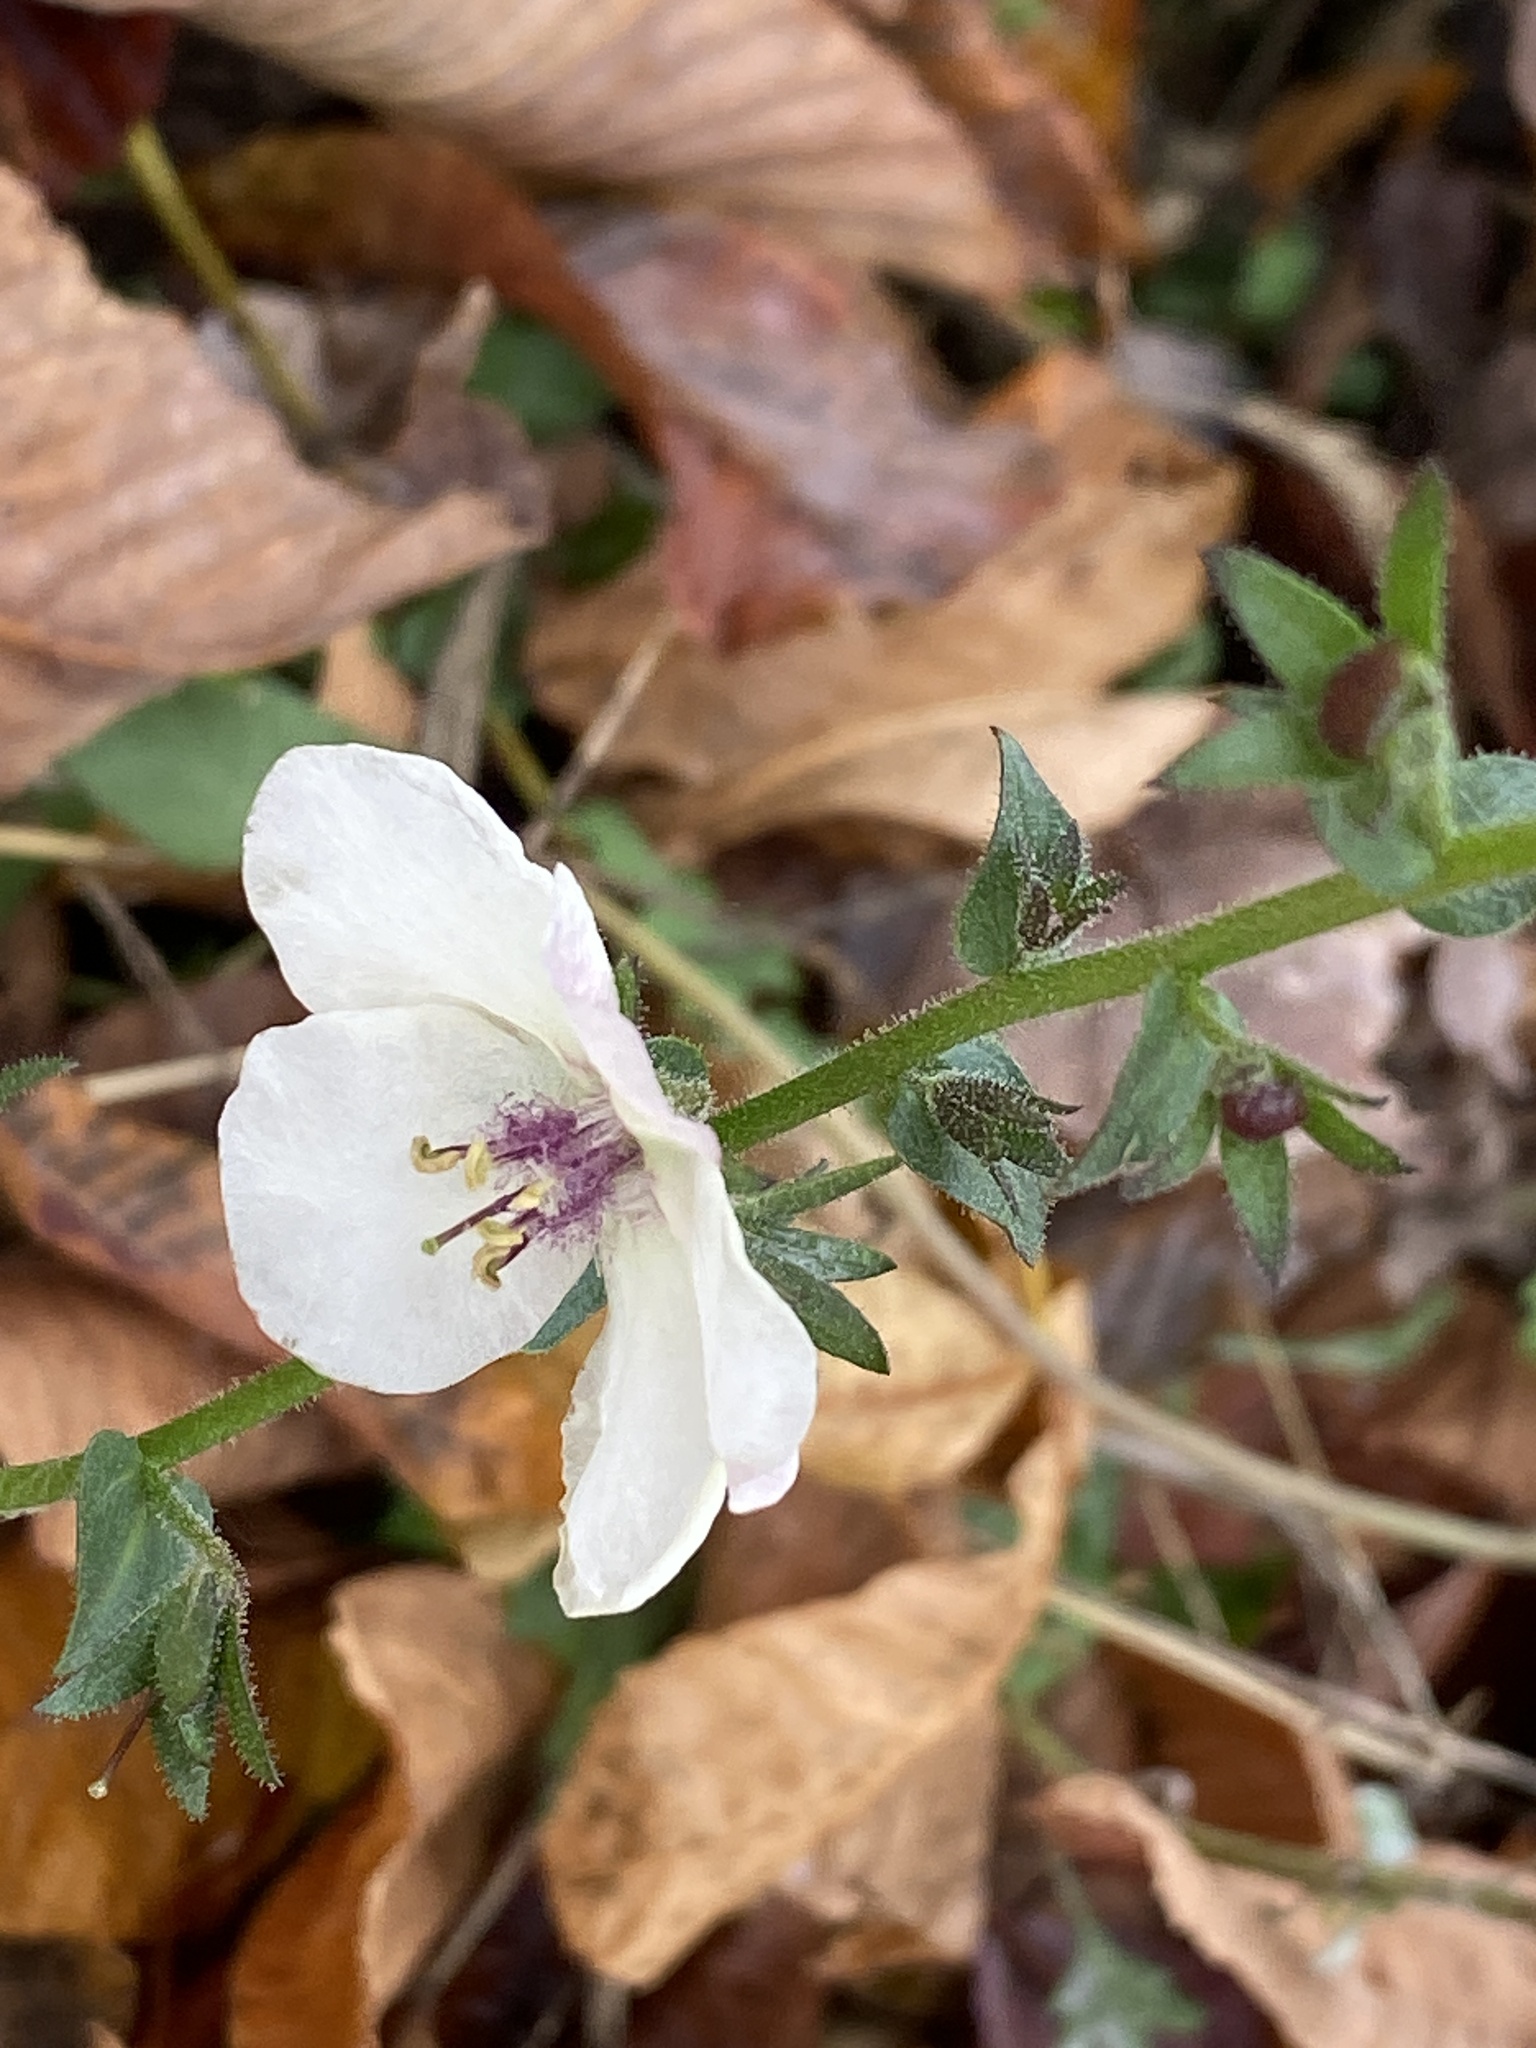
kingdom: Plantae
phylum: Tracheophyta
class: Magnoliopsida
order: Lamiales
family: Scrophulariaceae
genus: Verbascum
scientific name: Verbascum blattaria
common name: Moth mullein
